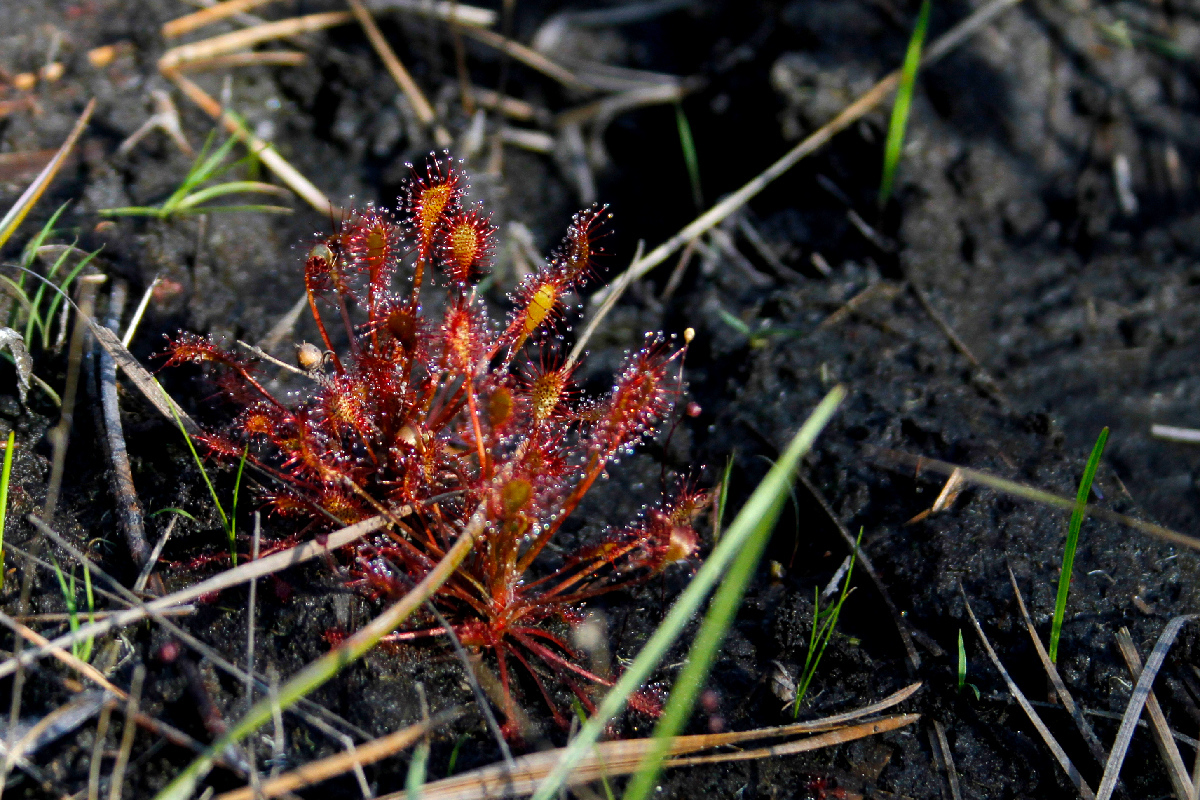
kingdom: Plantae
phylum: Tracheophyta
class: Magnoliopsida
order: Caryophyllales
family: Droseraceae
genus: Drosera
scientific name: Drosera intermedia
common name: Oblong-leaved sundew
